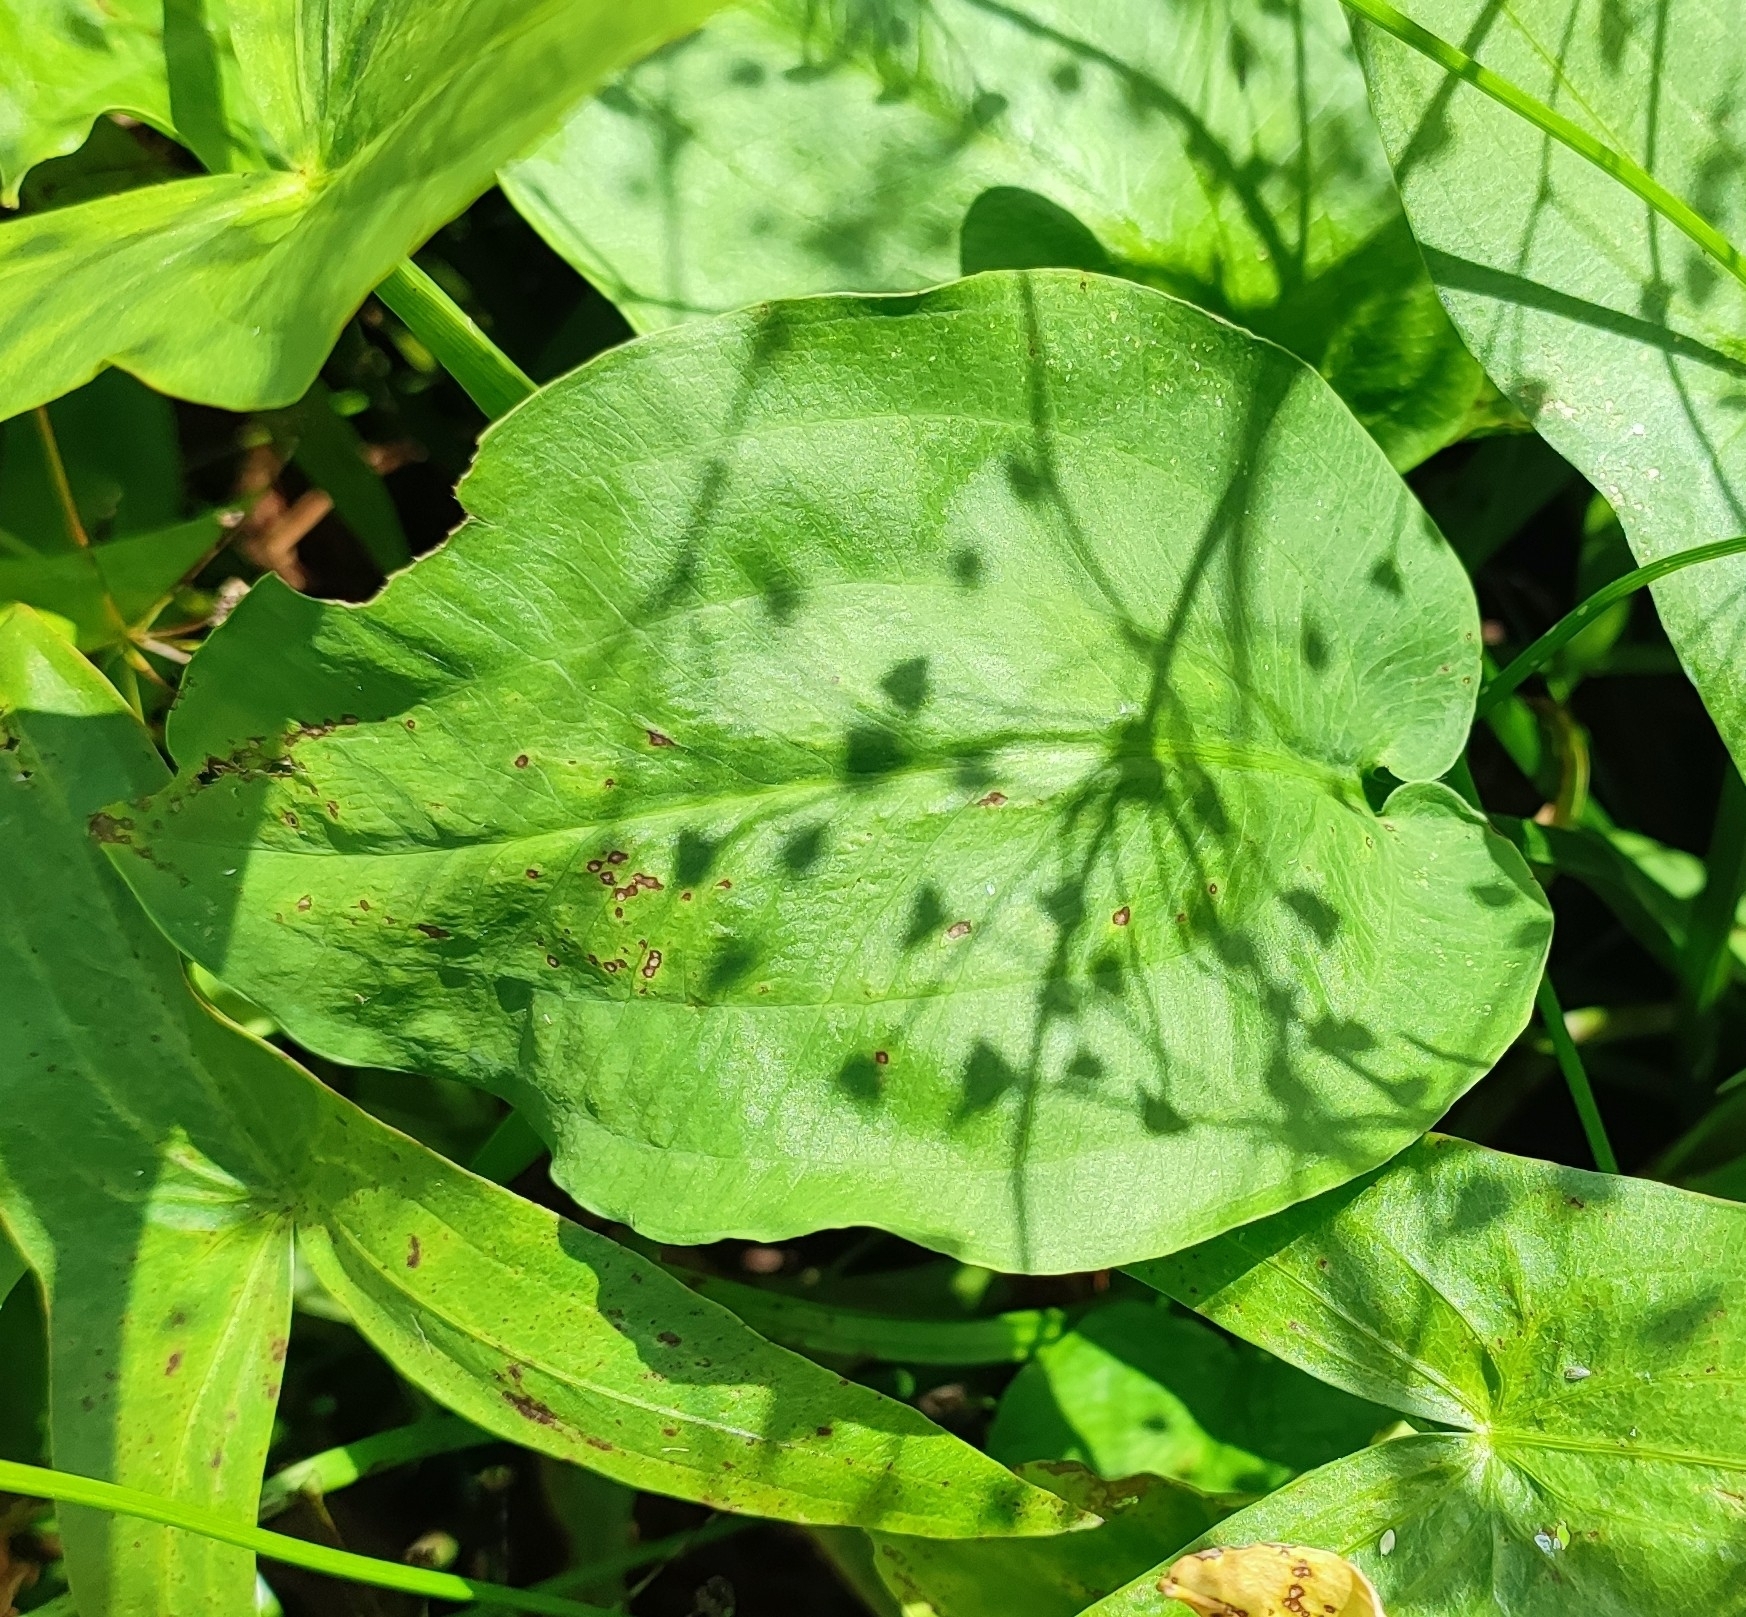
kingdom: Plantae
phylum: Tracheophyta
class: Liliopsida
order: Alismatales
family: Alismataceae
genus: Alisma
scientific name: Alisma plantago-aquatica
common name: Water-plantain
